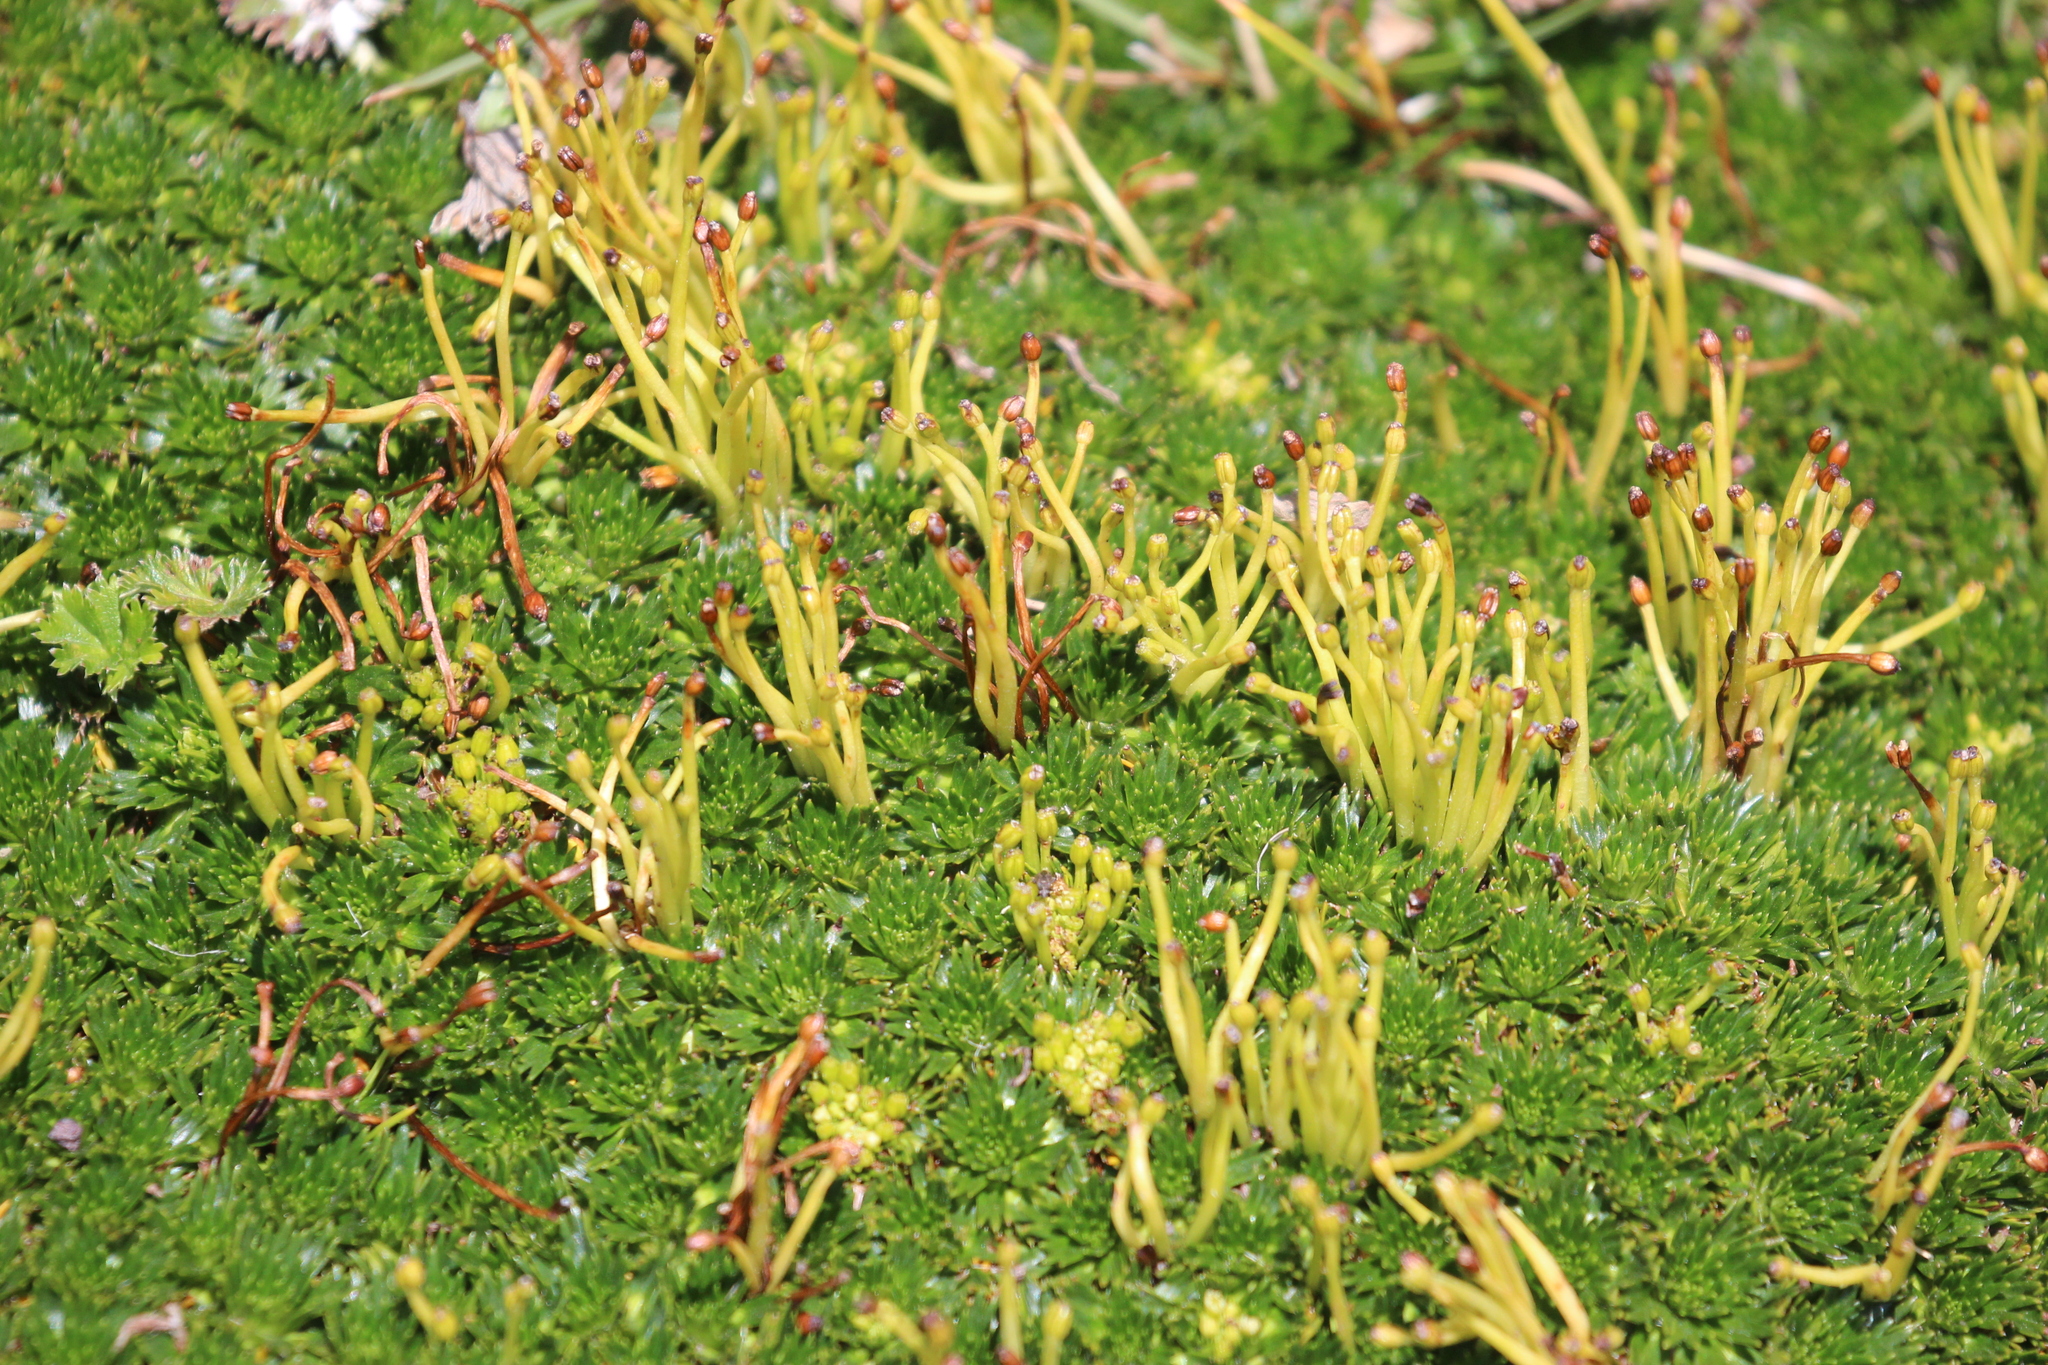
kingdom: Plantae
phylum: Tracheophyta
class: Magnoliopsida
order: Apiales
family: Apiaceae
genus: Azorella
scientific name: Azorella pedunculata
